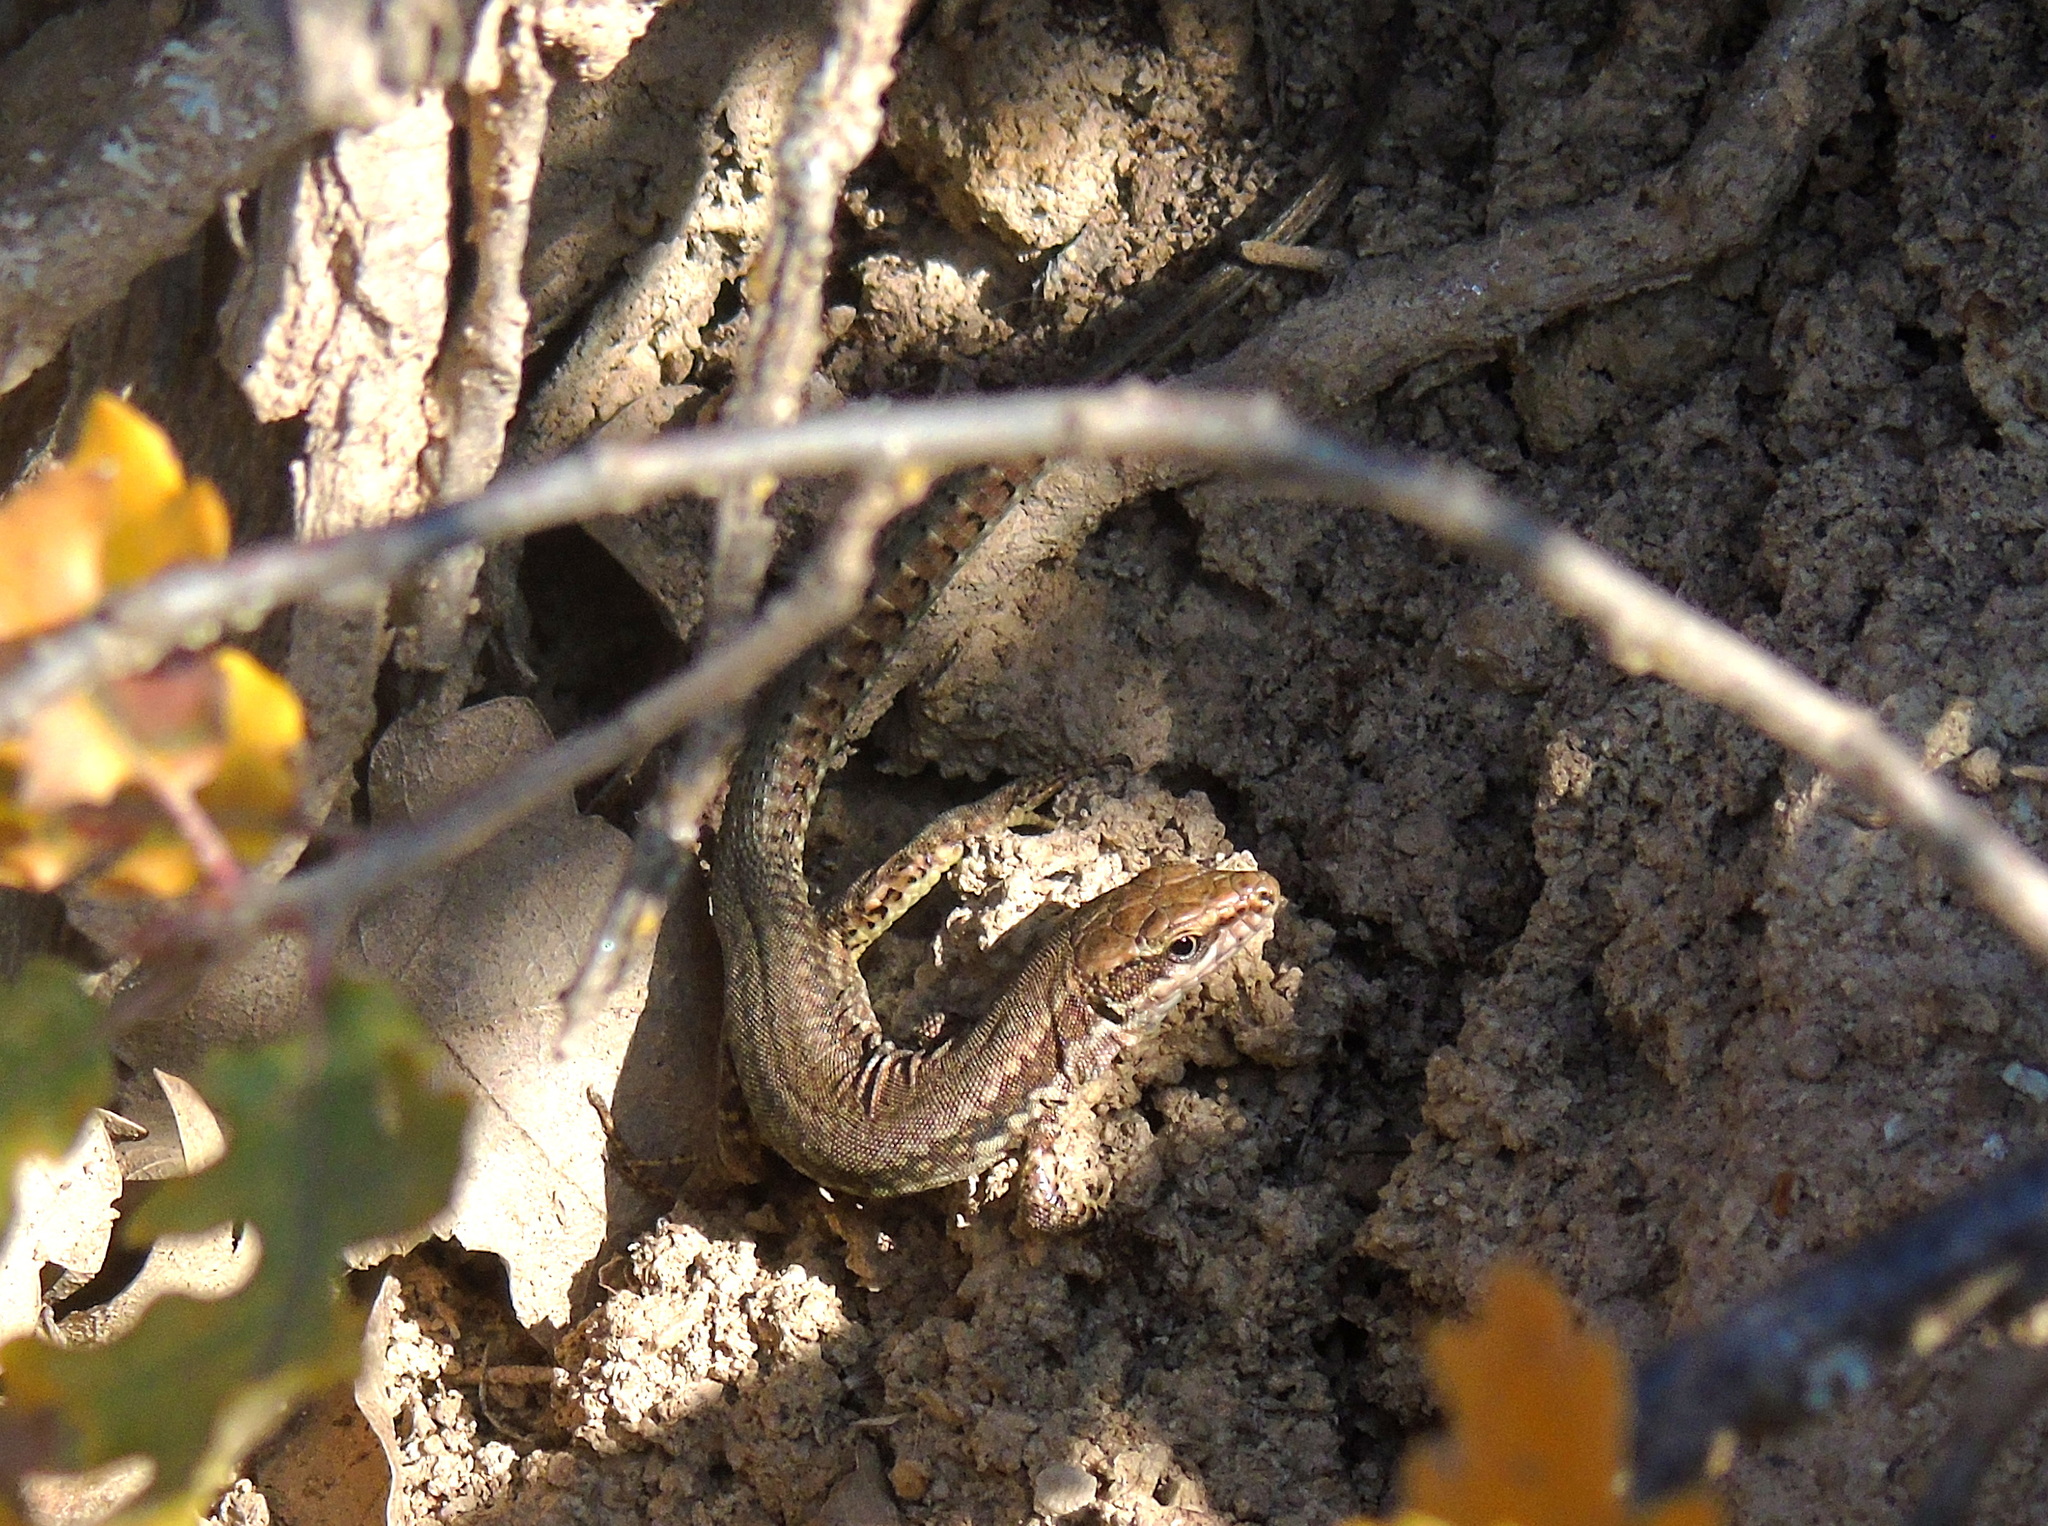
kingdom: Animalia
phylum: Chordata
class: Squamata
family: Lacertidae
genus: Podarcis
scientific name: Podarcis muralis
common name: Common wall lizard
